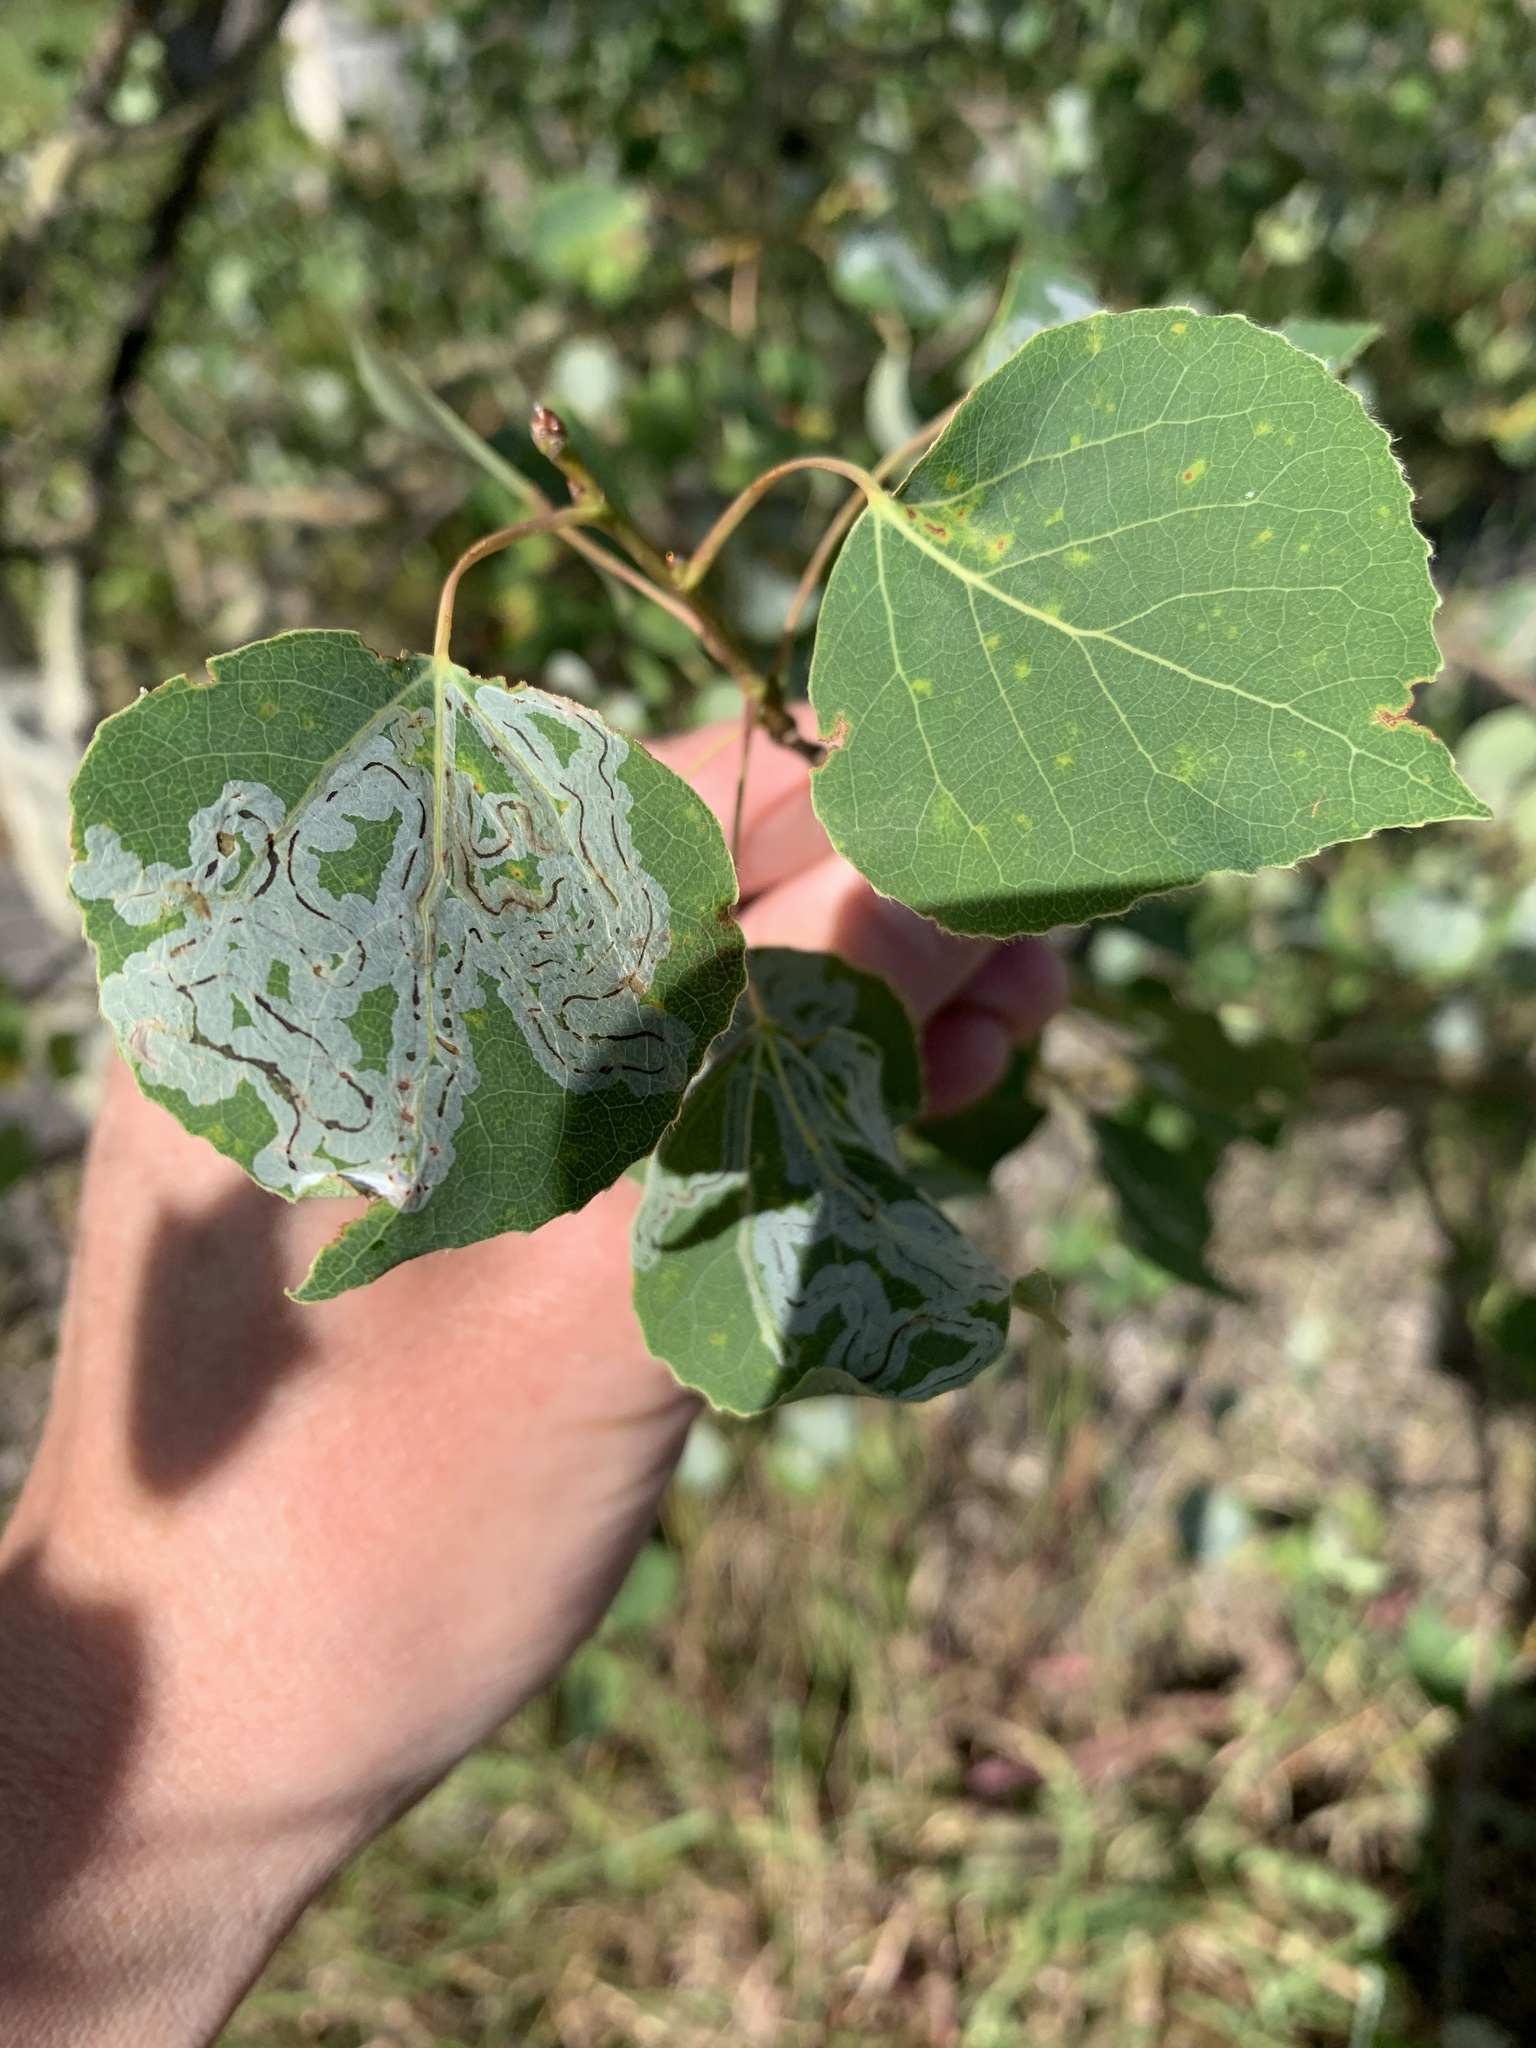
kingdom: Animalia
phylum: Arthropoda
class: Insecta
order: Lepidoptera
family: Gracillariidae
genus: Phyllocnistis
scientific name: Phyllocnistis populiella
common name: Aspen serpentine leafminer moth
